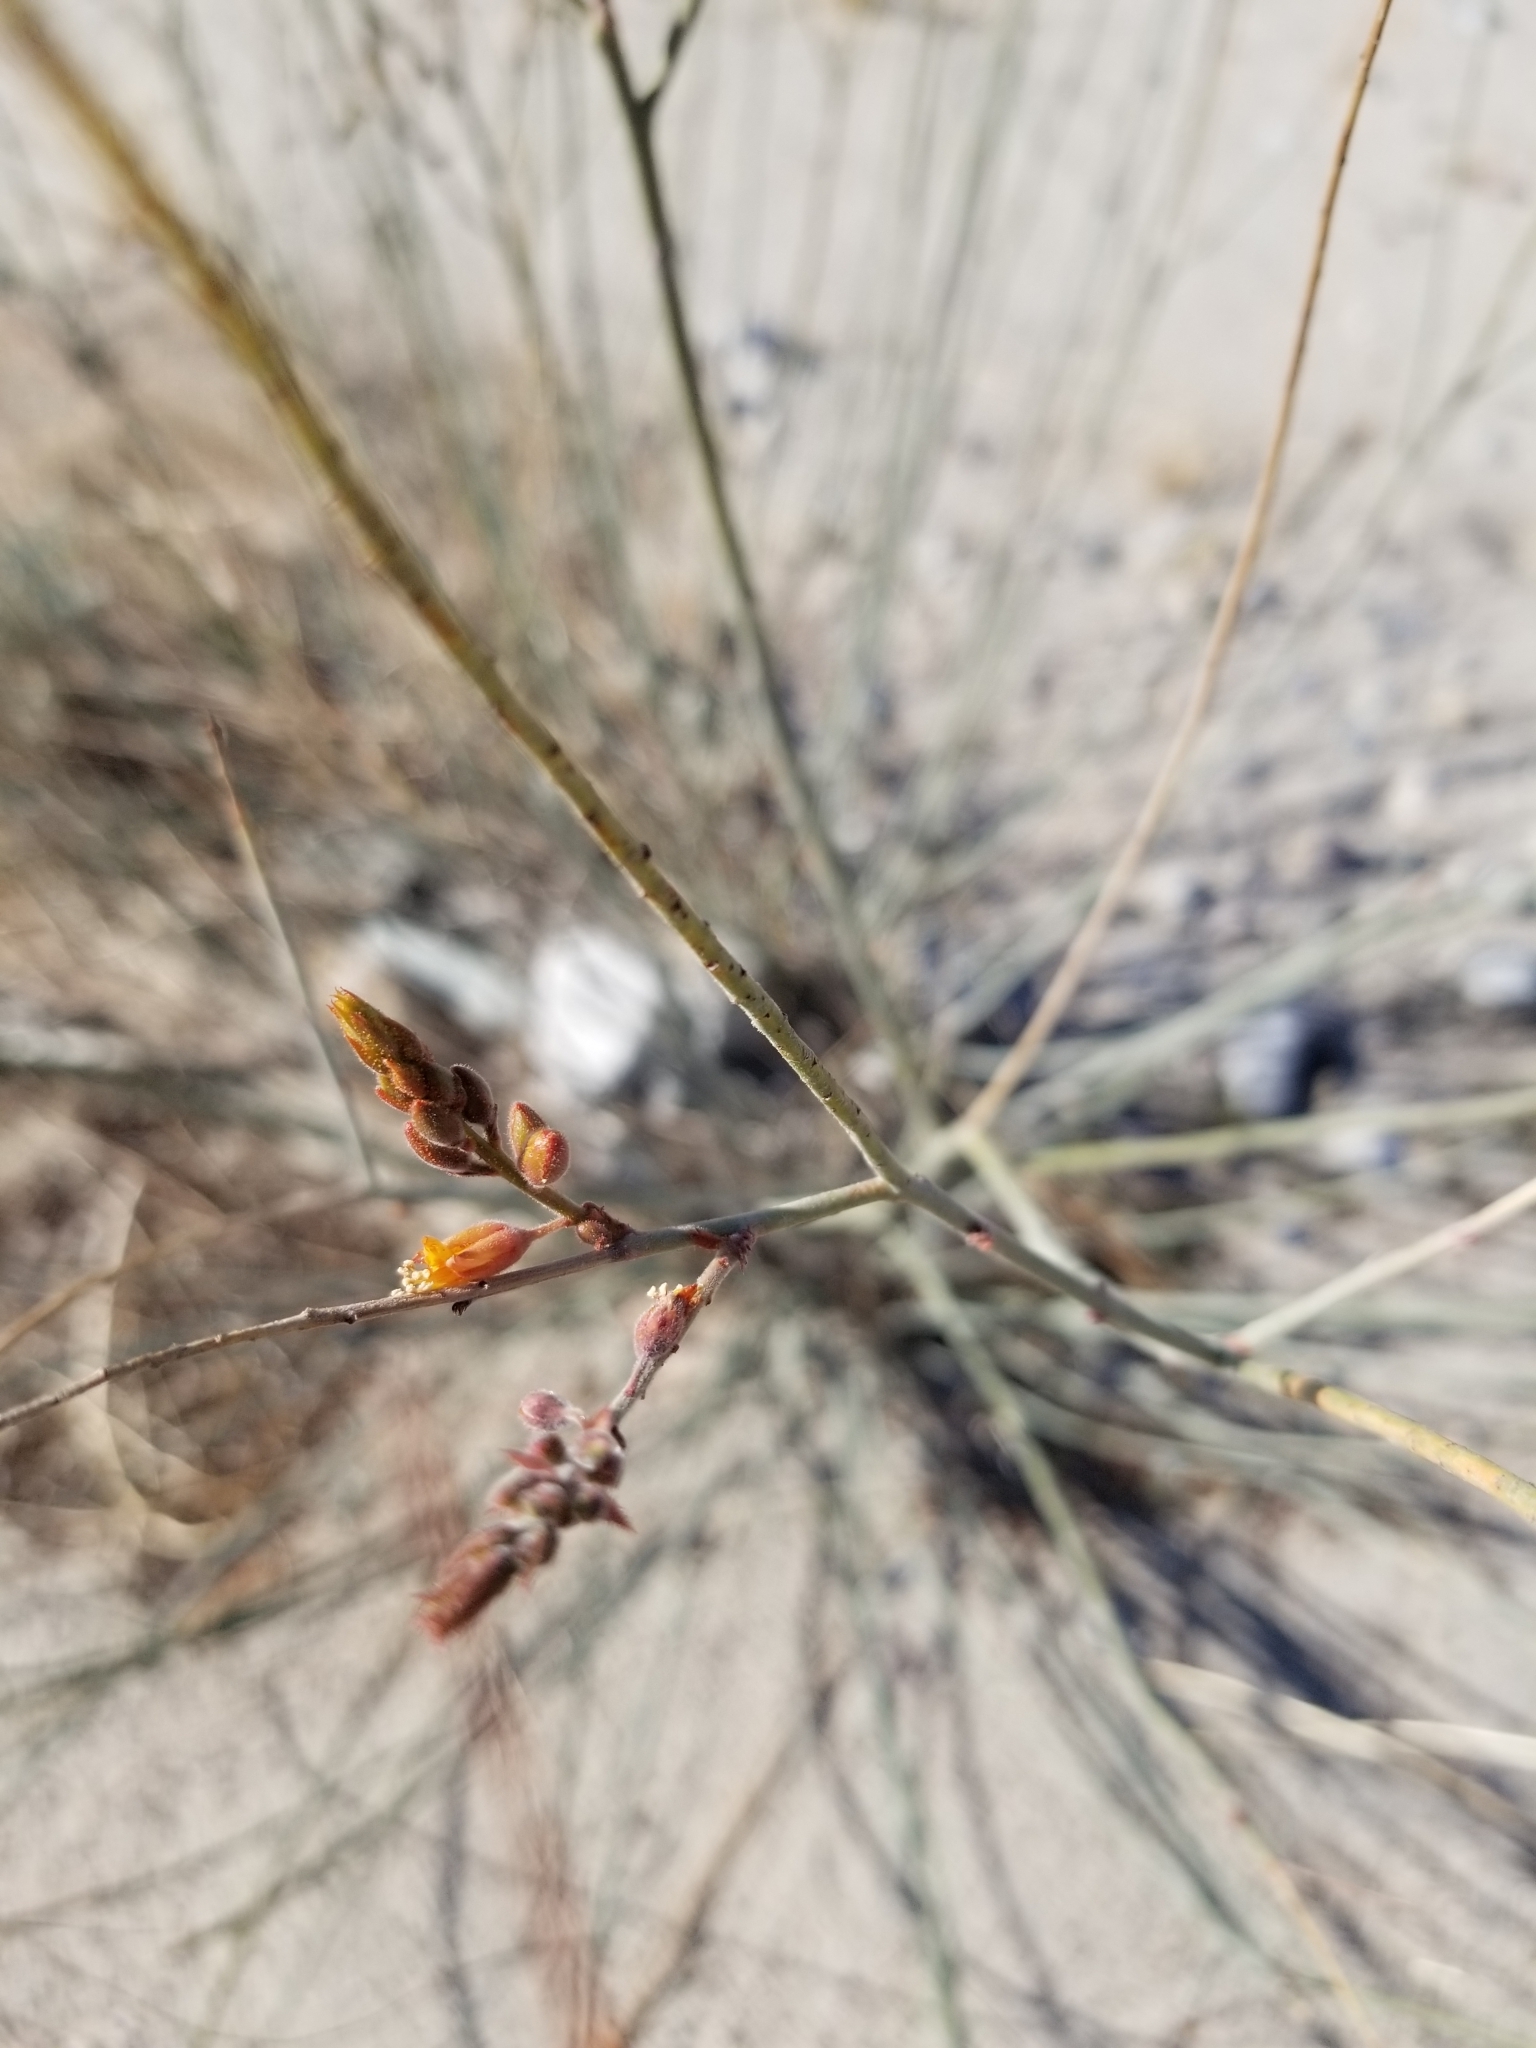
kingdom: Plantae
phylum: Tracheophyta
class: Magnoliopsida
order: Fabales
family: Fabaceae
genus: Hoffmannseggia
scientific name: Hoffmannseggia microphylla
